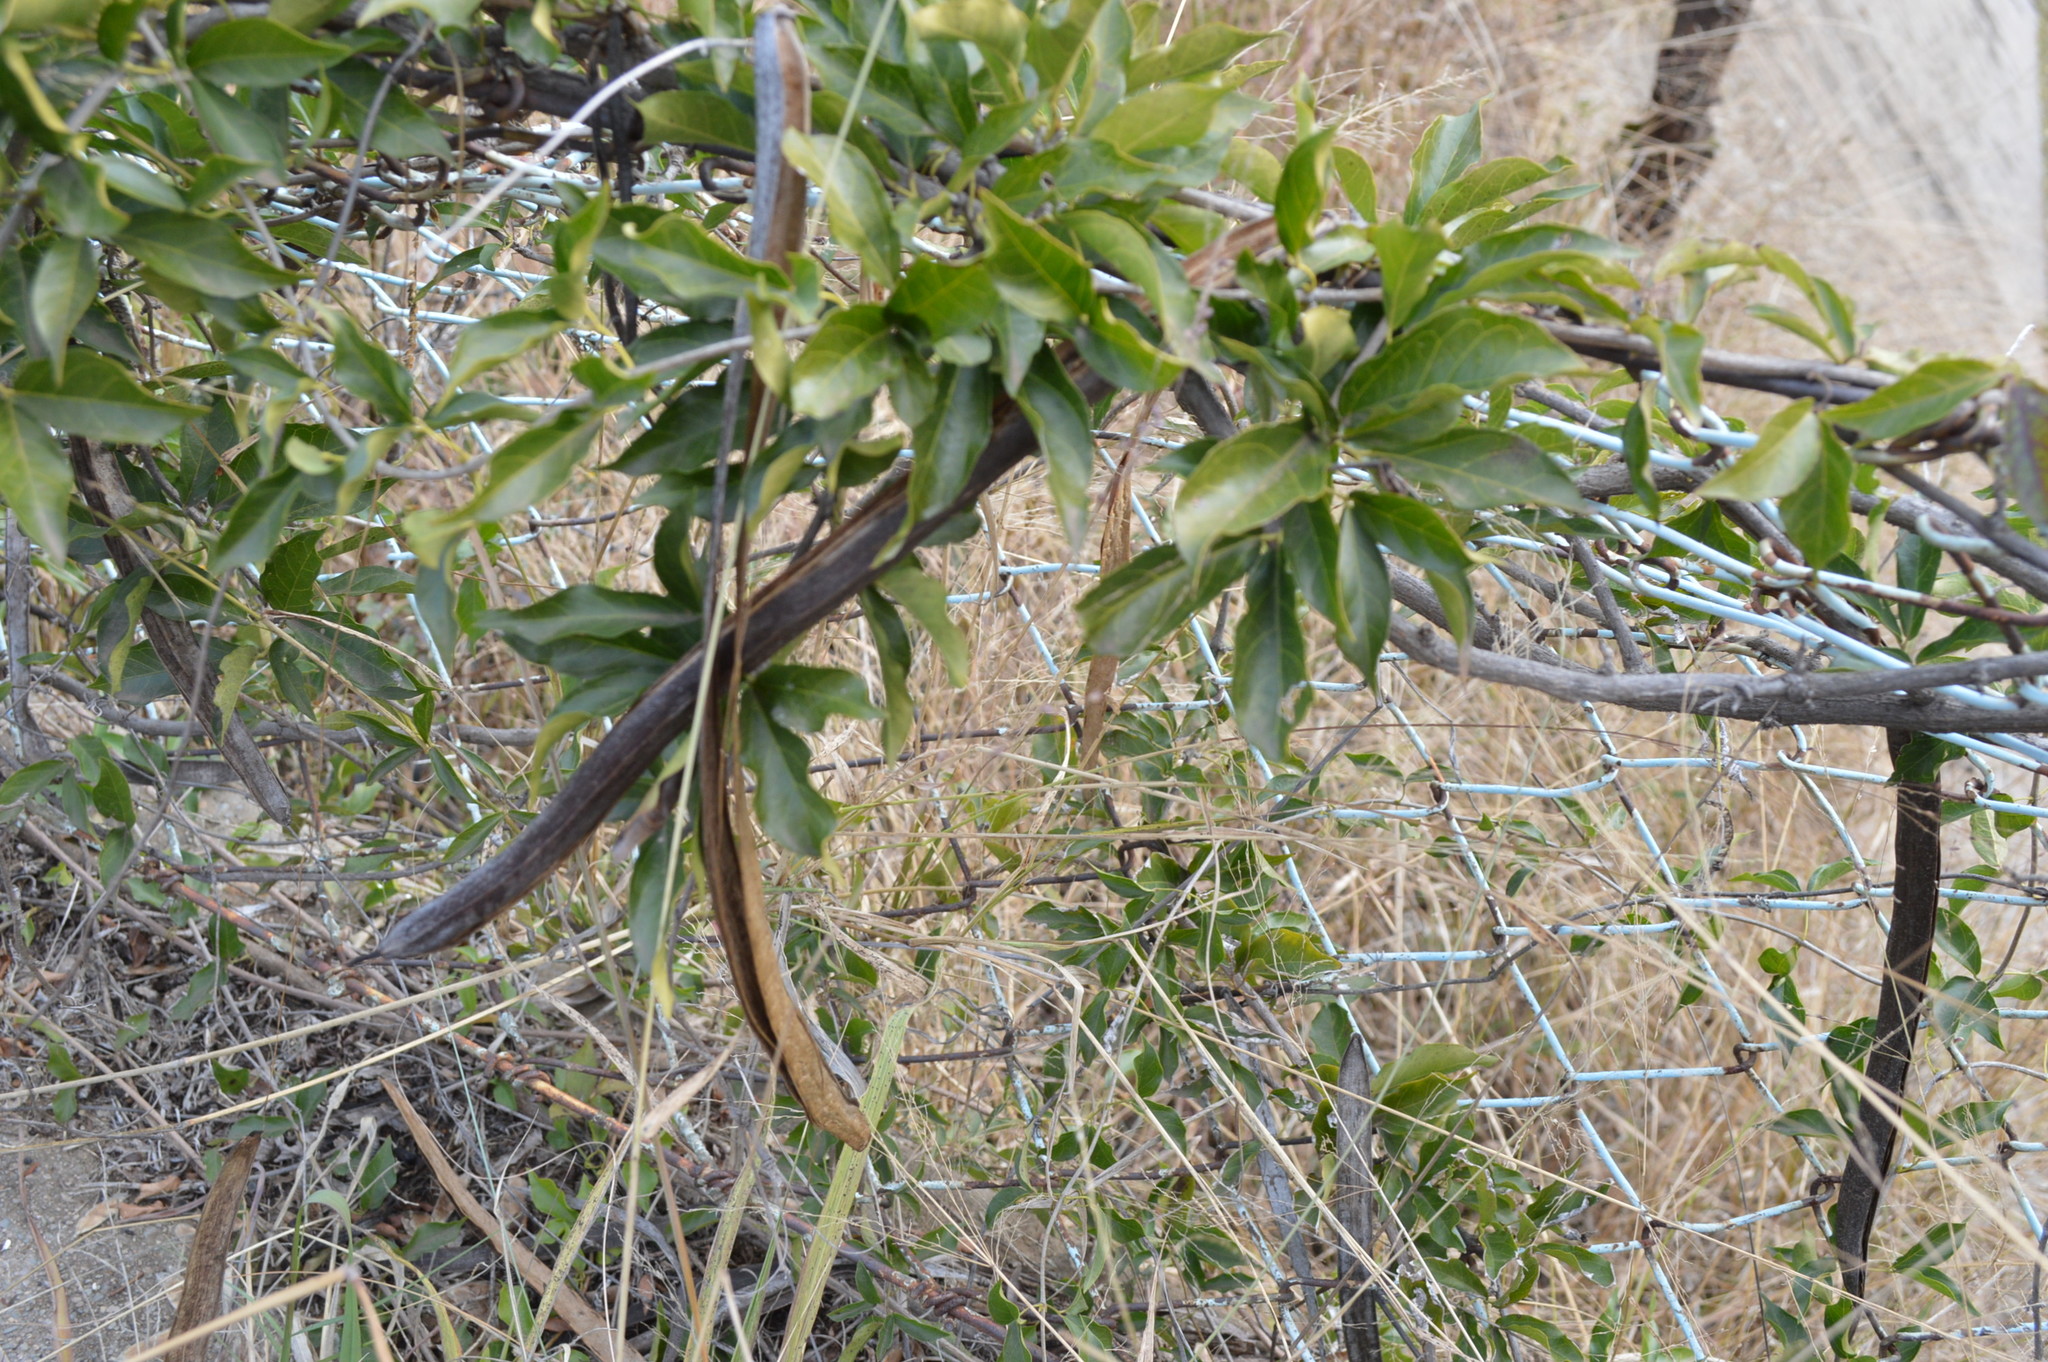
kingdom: Plantae
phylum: Tracheophyta
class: Magnoliopsida
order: Lamiales
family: Bignoniaceae
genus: Dolichandra
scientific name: Dolichandra unguis-cati
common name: Catclaw vine
